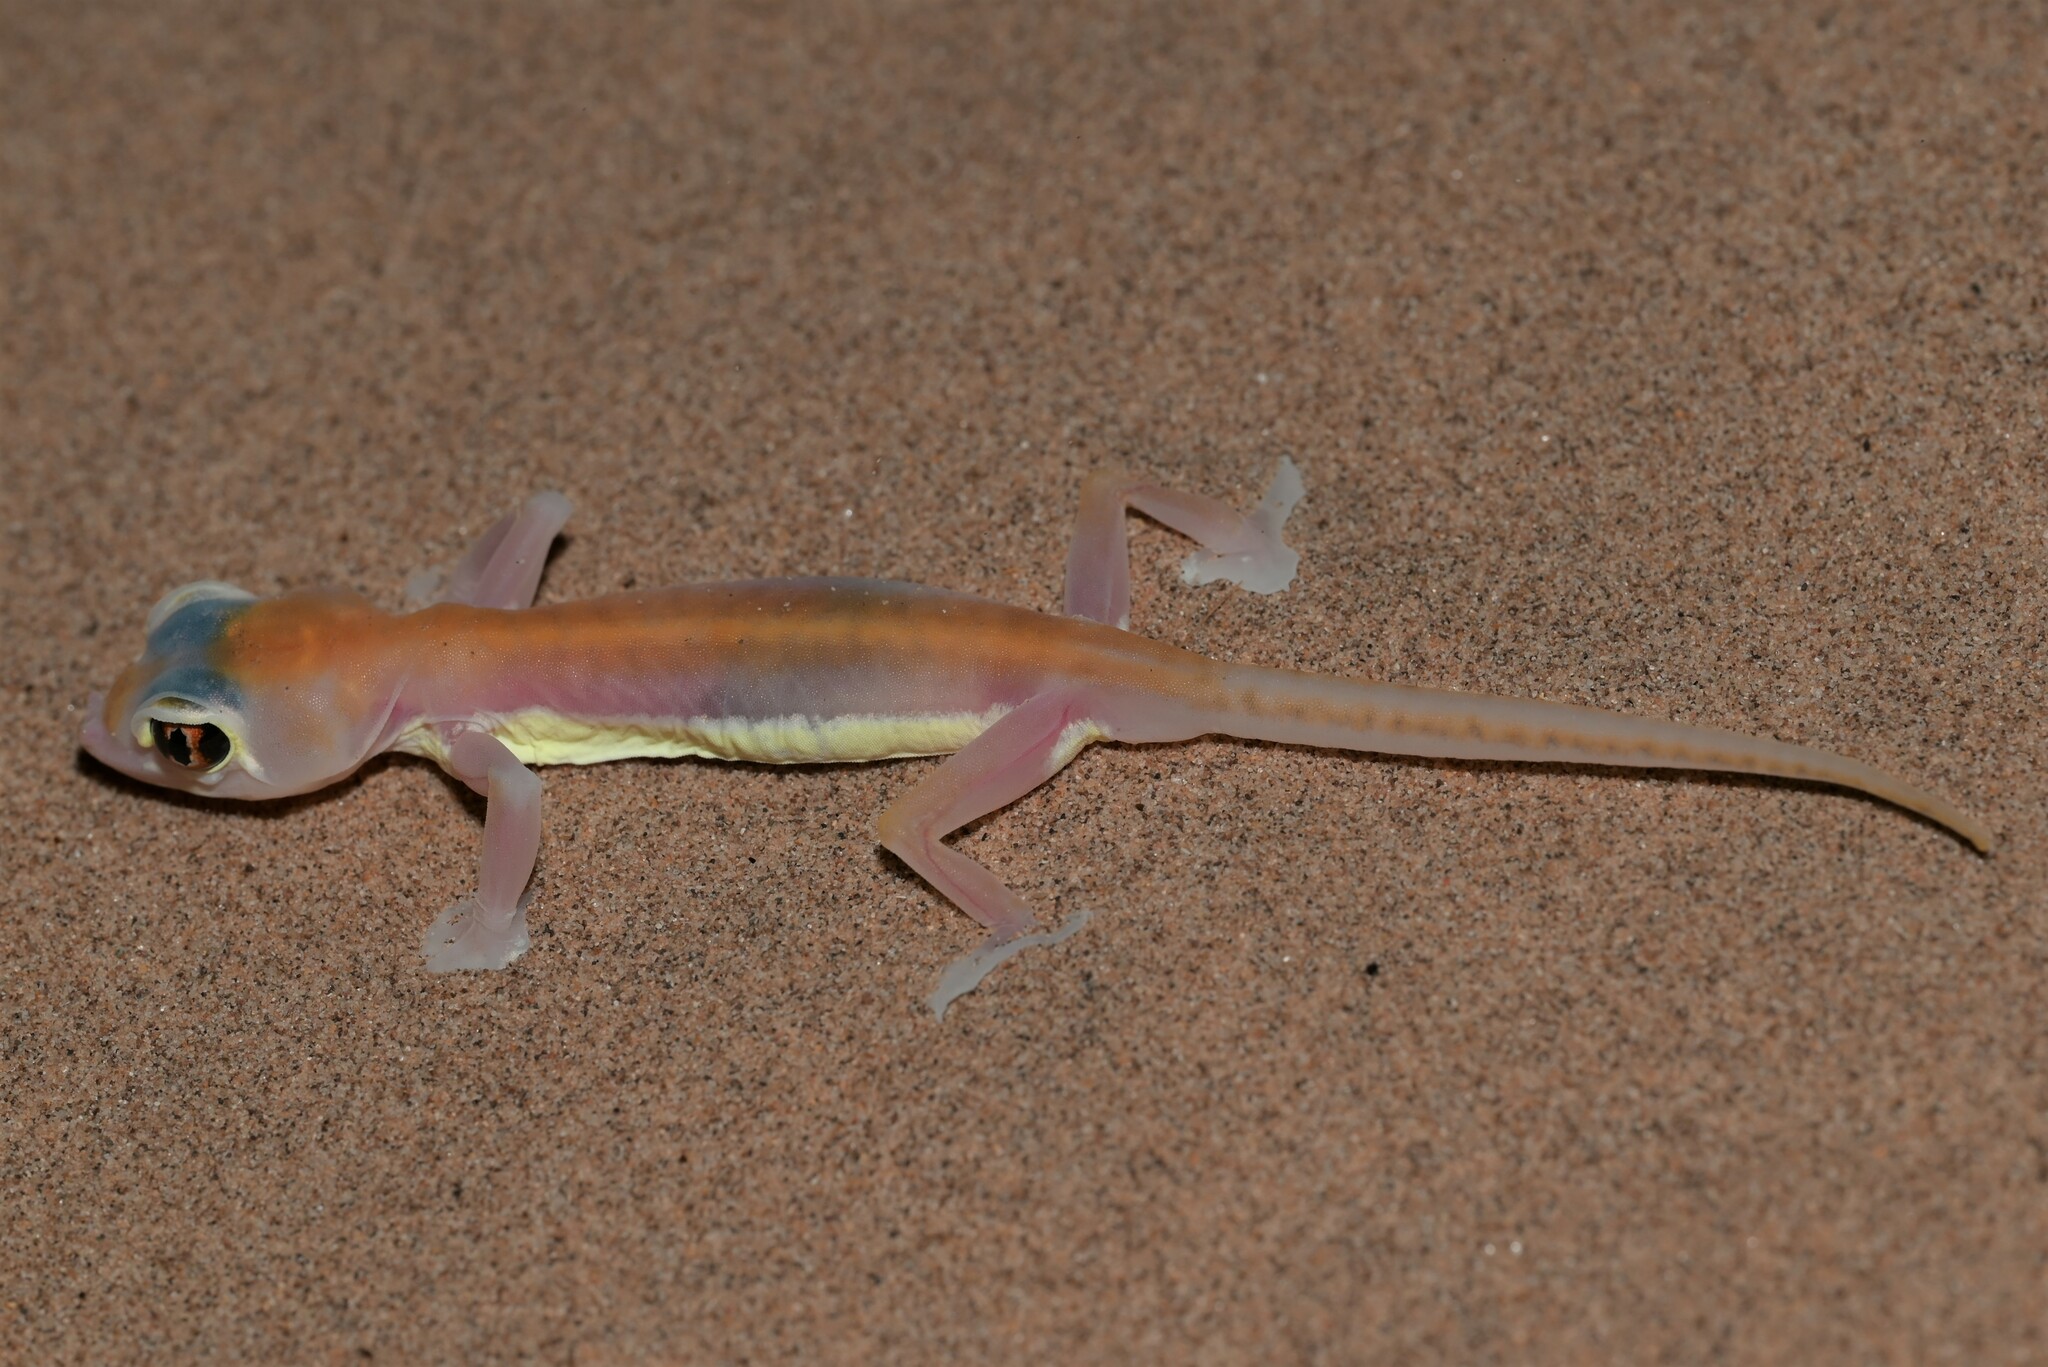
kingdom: Animalia
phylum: Chordata
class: Squamata
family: Gekkonidae
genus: Pachydactylus
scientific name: Pachydactylus rangei
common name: Namib sand gecko
